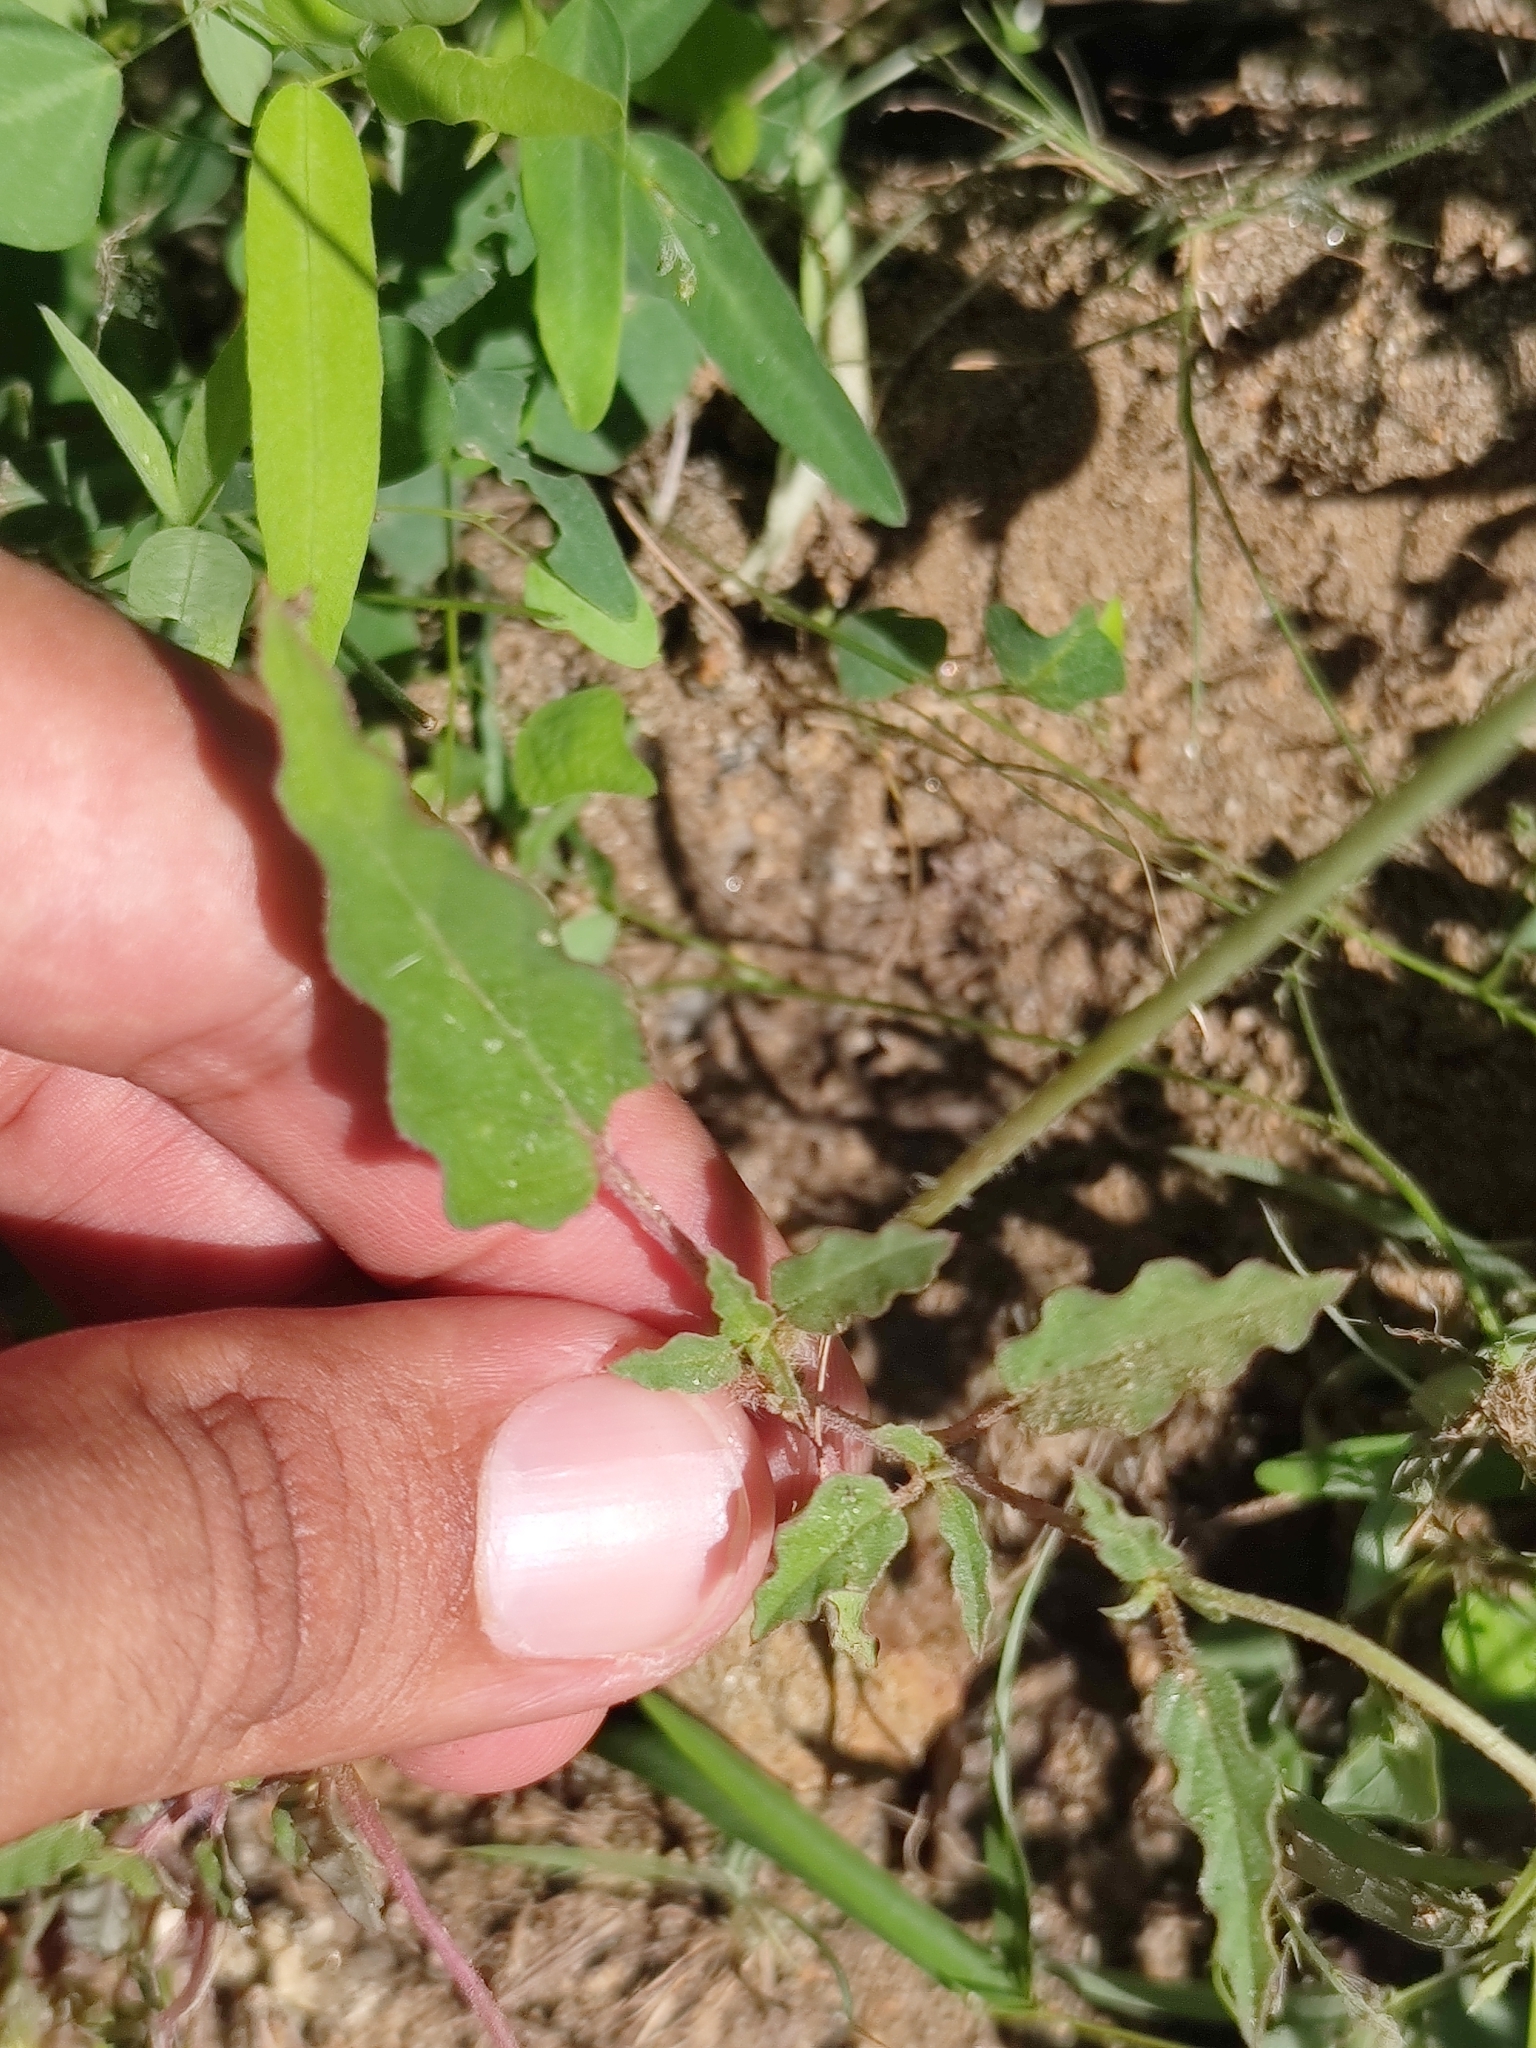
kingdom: Plantae
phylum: Tracheophyta
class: Magnoliopsida
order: Caryophyllales
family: Nyctaginaceae
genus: Boerhavia
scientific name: Boerhavia xantii
